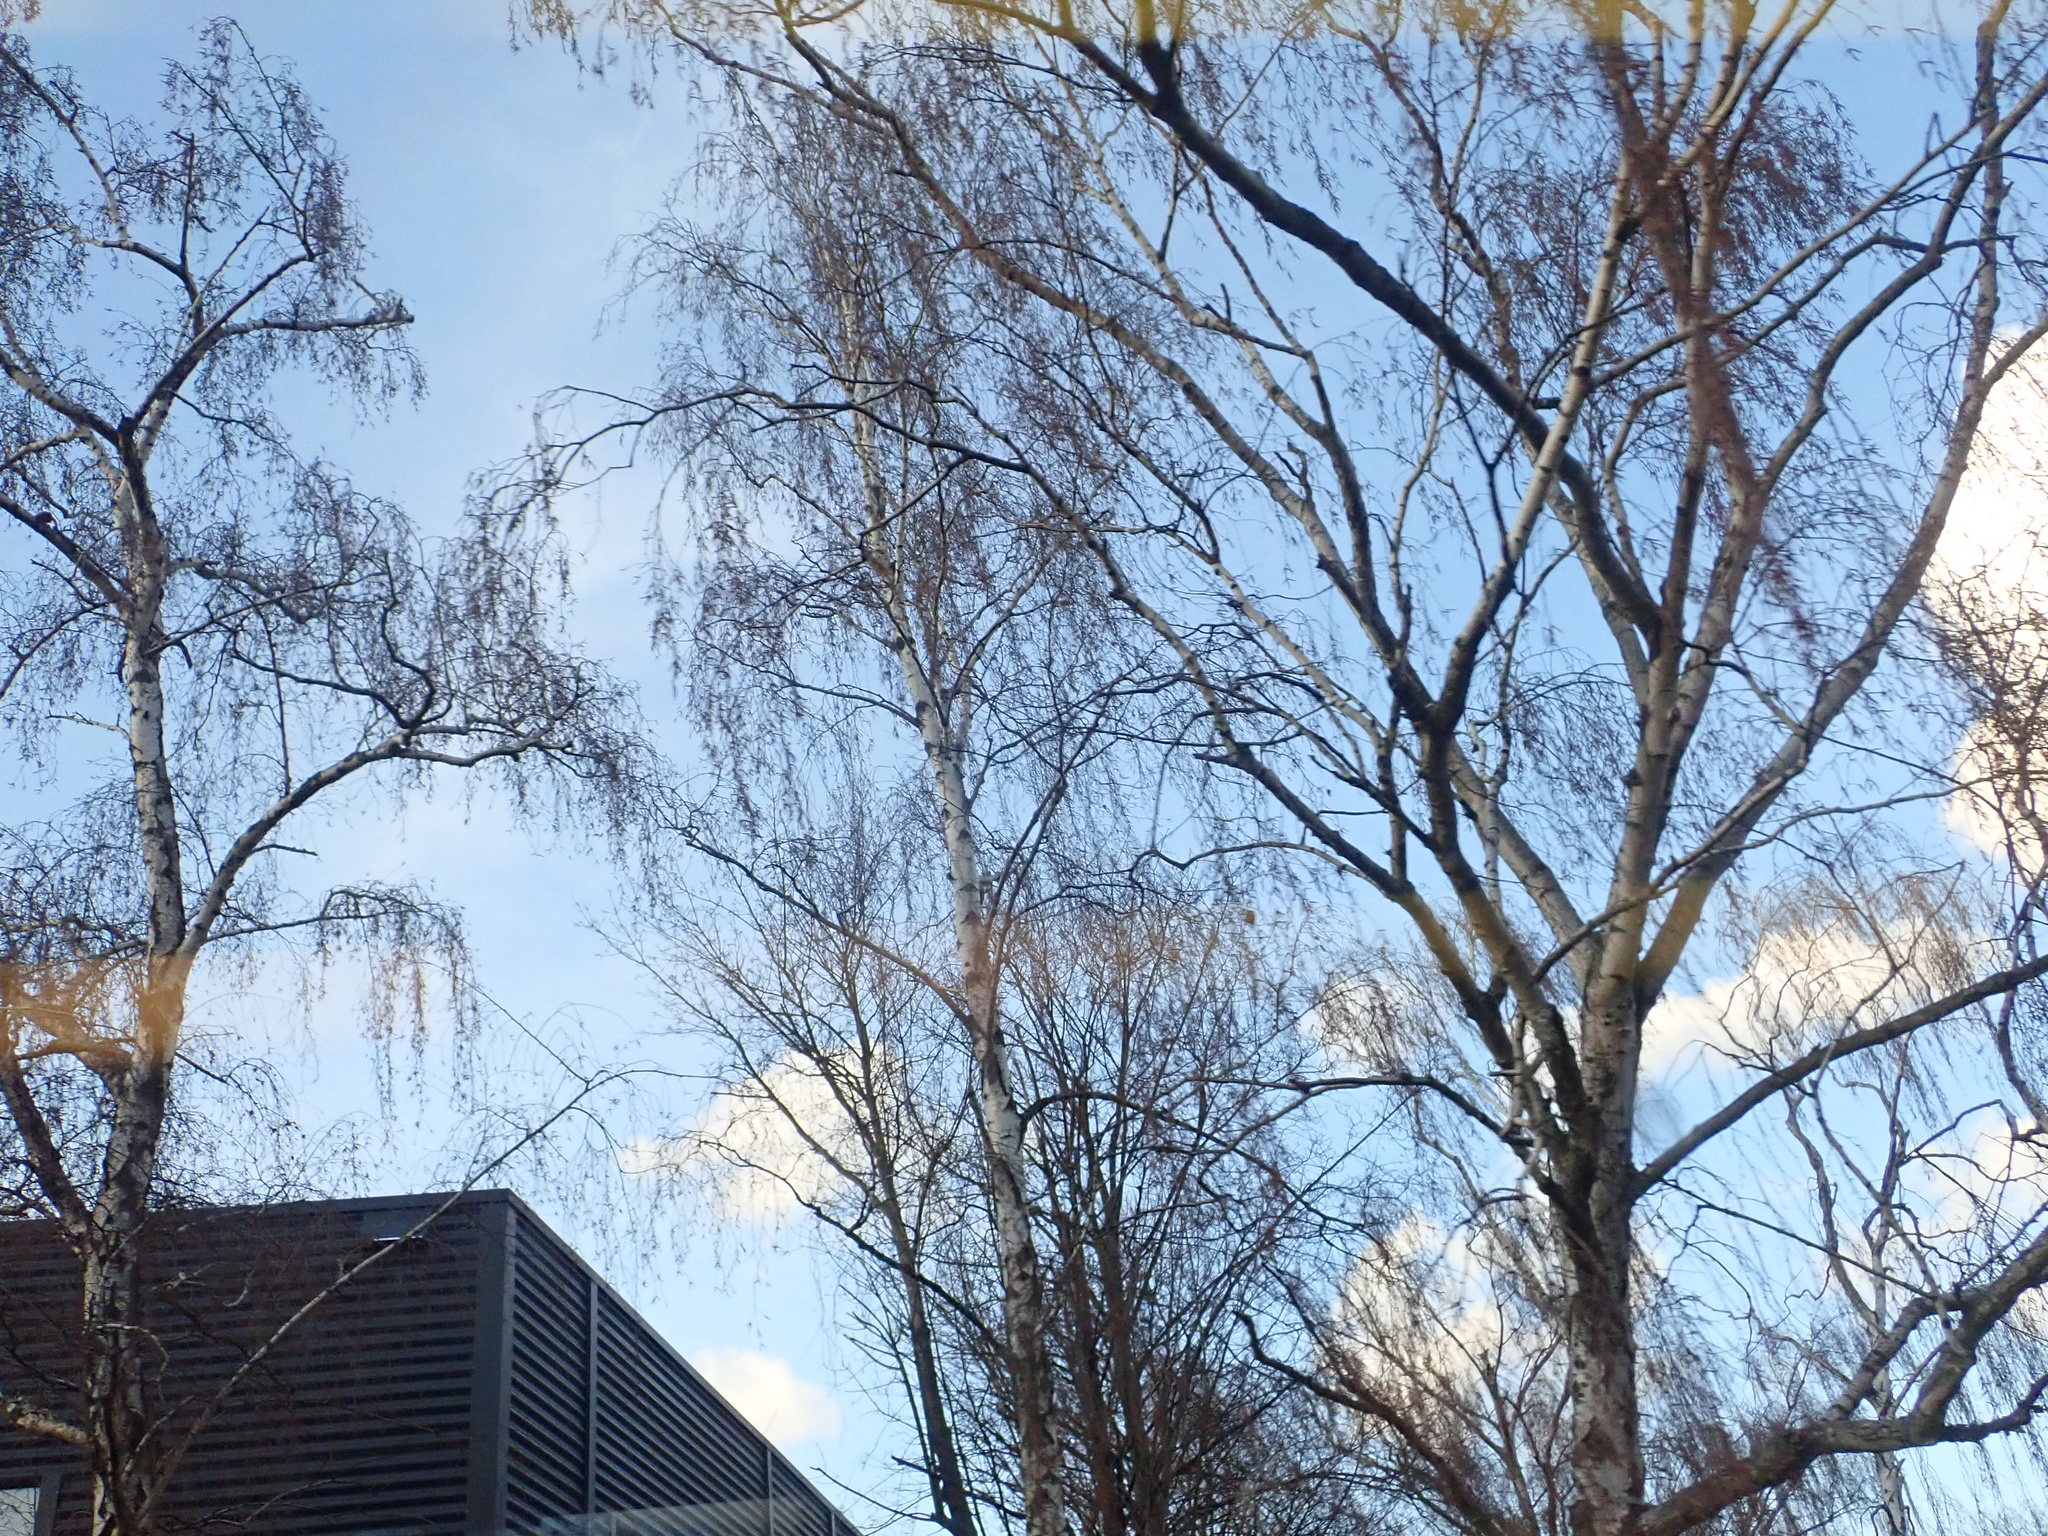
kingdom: Plantae
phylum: Tracheophyta
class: Magnoliopsida
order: Fagales
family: Betulaceae
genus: Betula
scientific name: Betula pendula
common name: Silver birch
